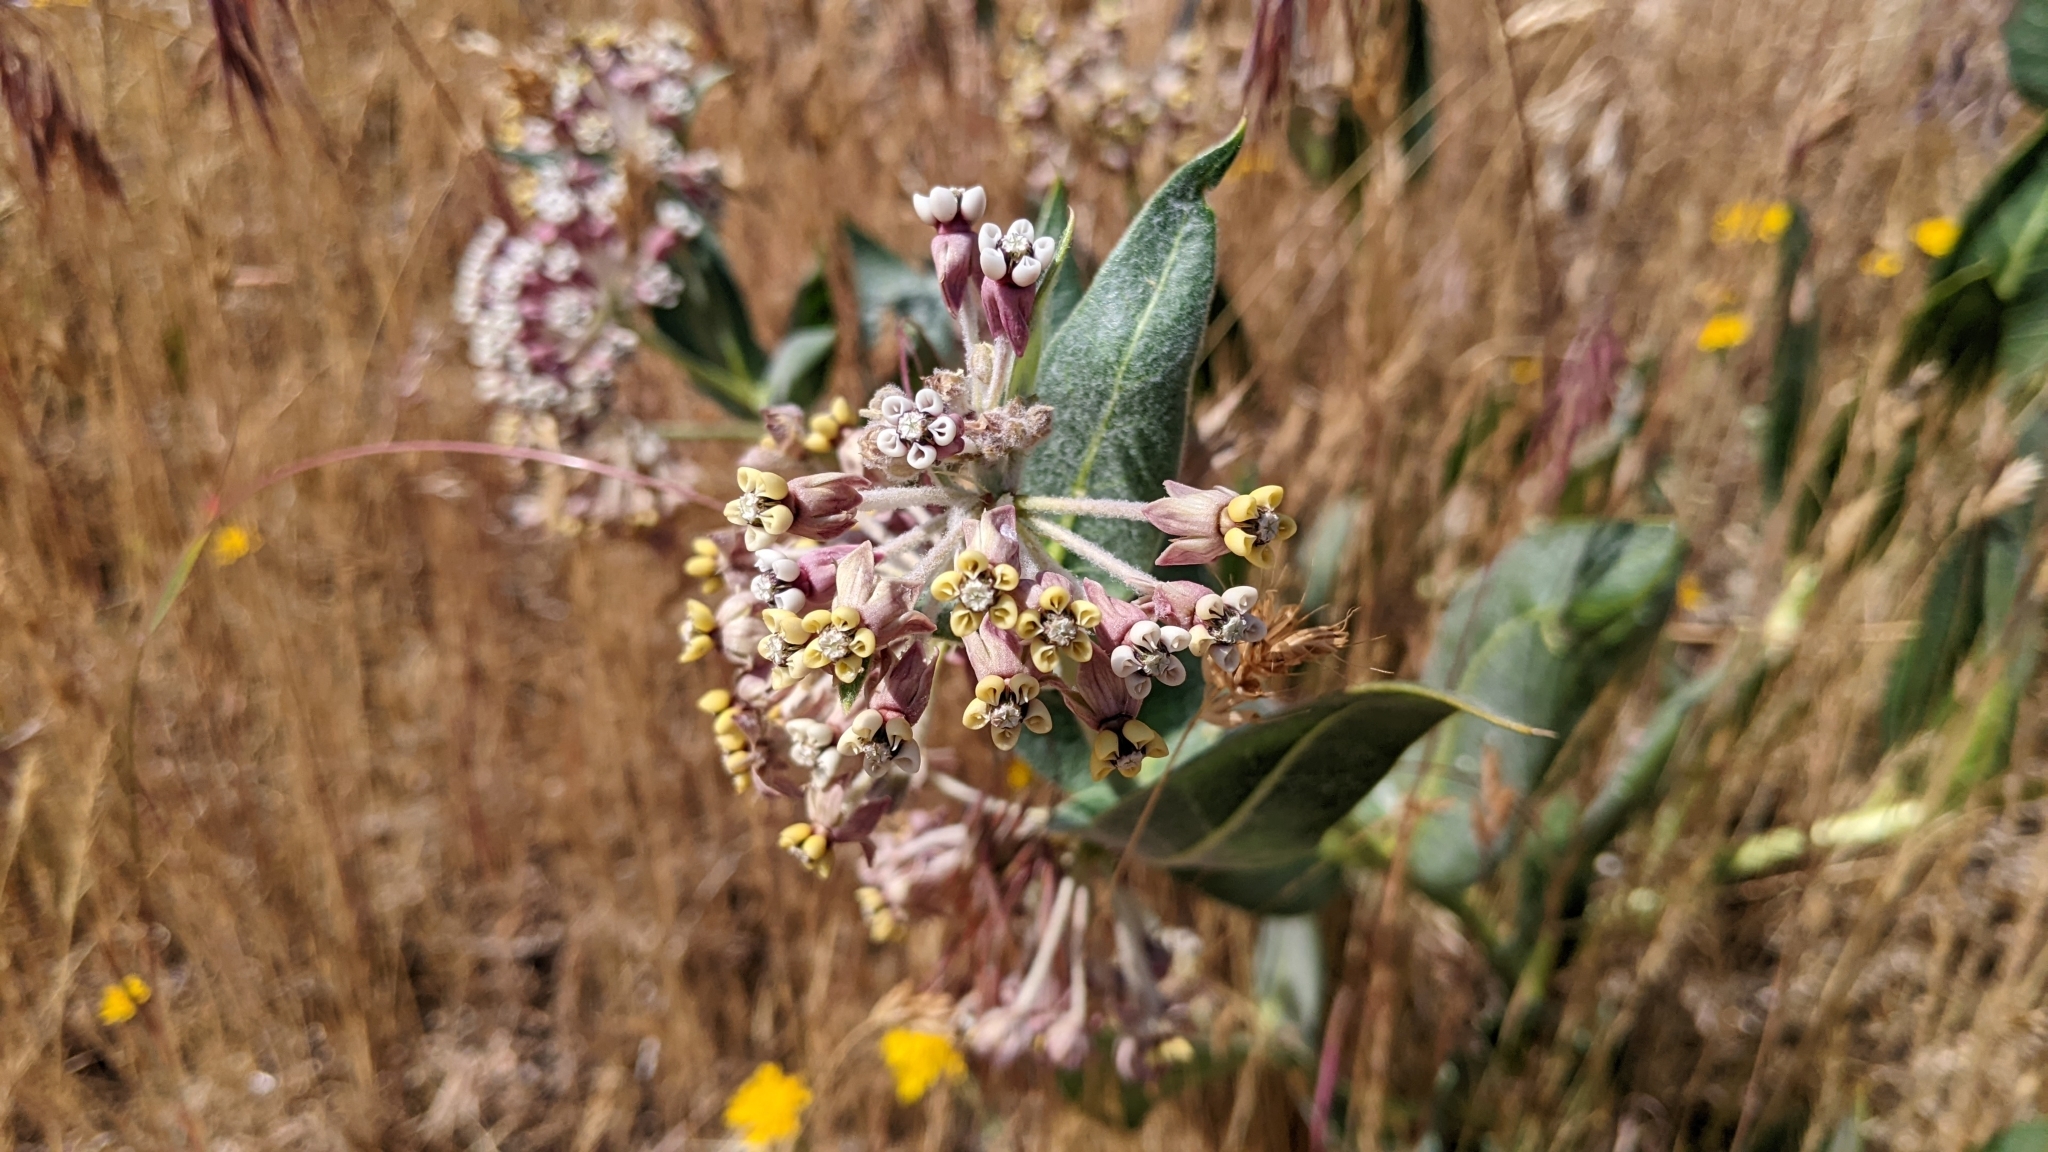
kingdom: Plantae
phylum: Tracheophyta
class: Magnoliopsida
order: Gentianales
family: Apocynaceae
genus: Asclepias
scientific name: Asclepias vestita
